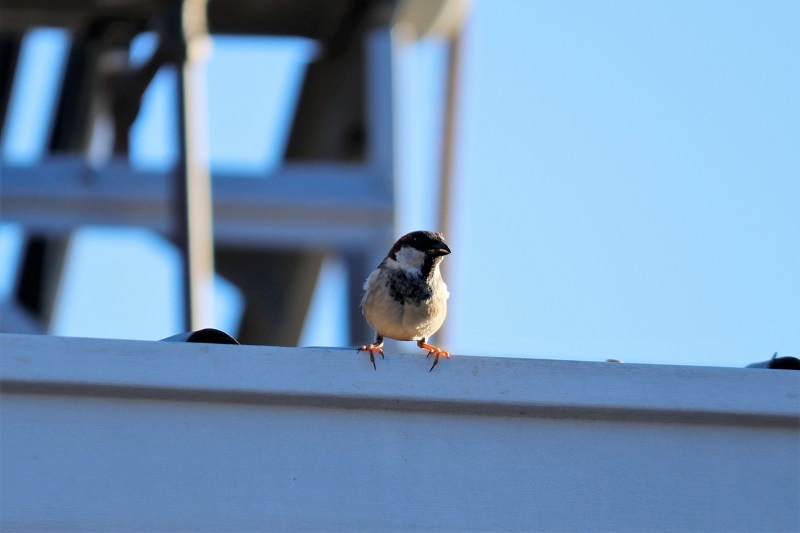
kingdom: Animalia
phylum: Chordata
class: Aves
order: Passeriformes
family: Passeridae
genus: Passer
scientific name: Passer domesticus
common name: House sparrow
